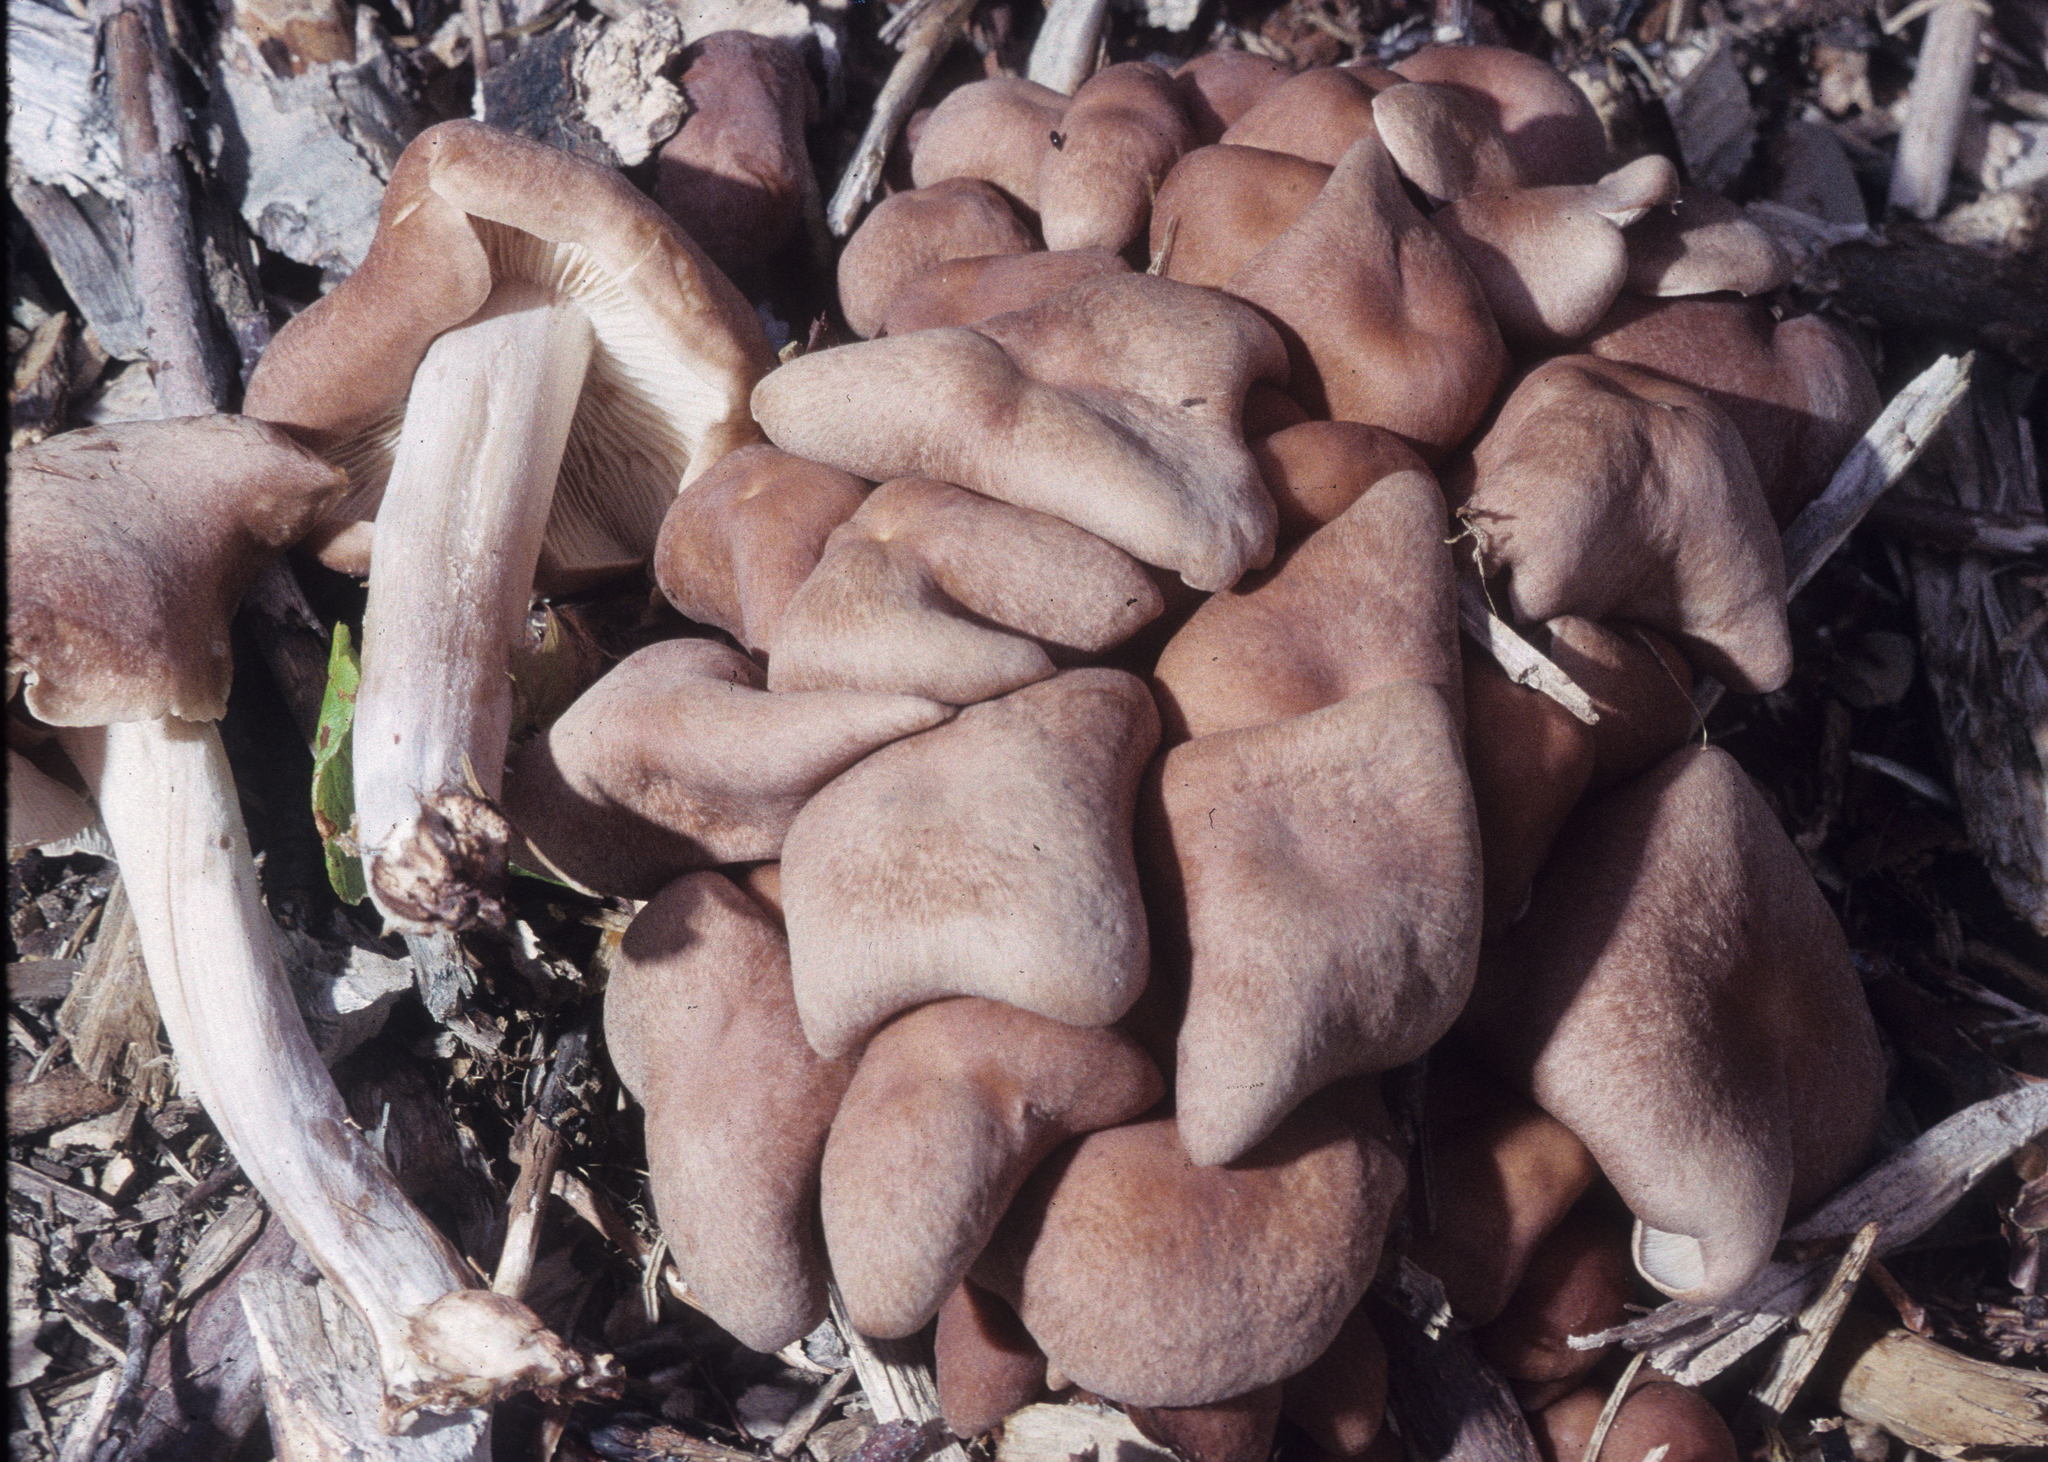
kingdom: Fungi
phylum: Basidiomycota
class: Agaricomycetes
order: Agaricales
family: Omphalotaceae
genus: Collybiopsis
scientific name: Collybiopsis luxurians
